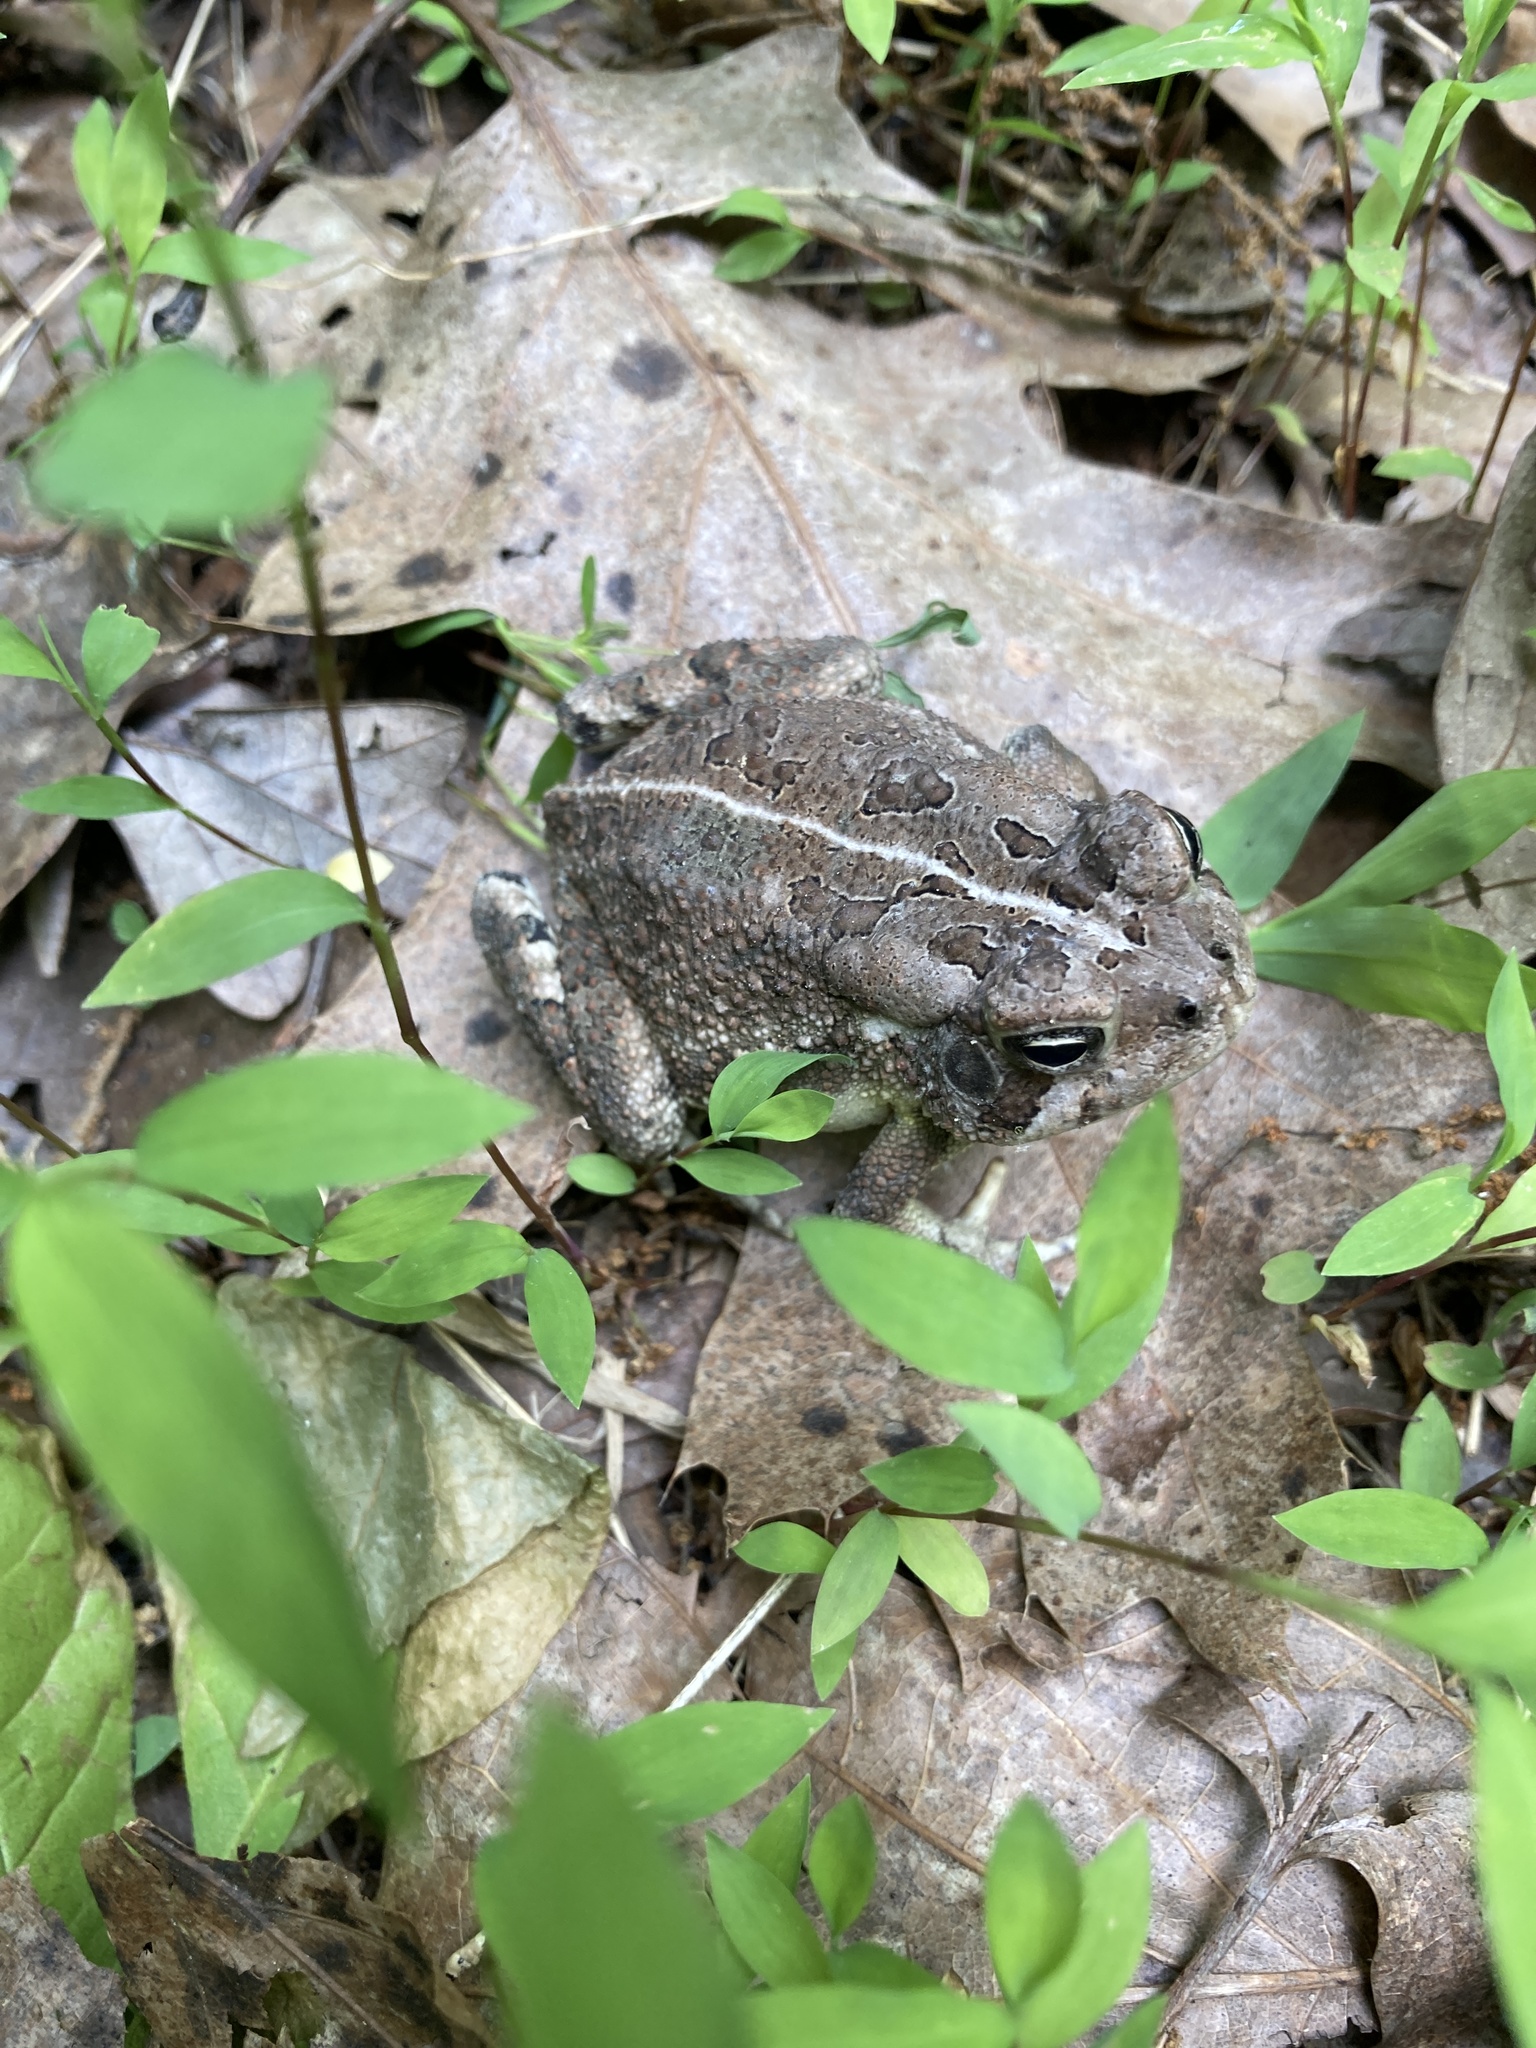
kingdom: Animalia
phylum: Chordata
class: Amphibia
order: Anura
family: Bufonidae
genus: Anaxyrus
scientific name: Anaxyrus americanus
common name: American toad
